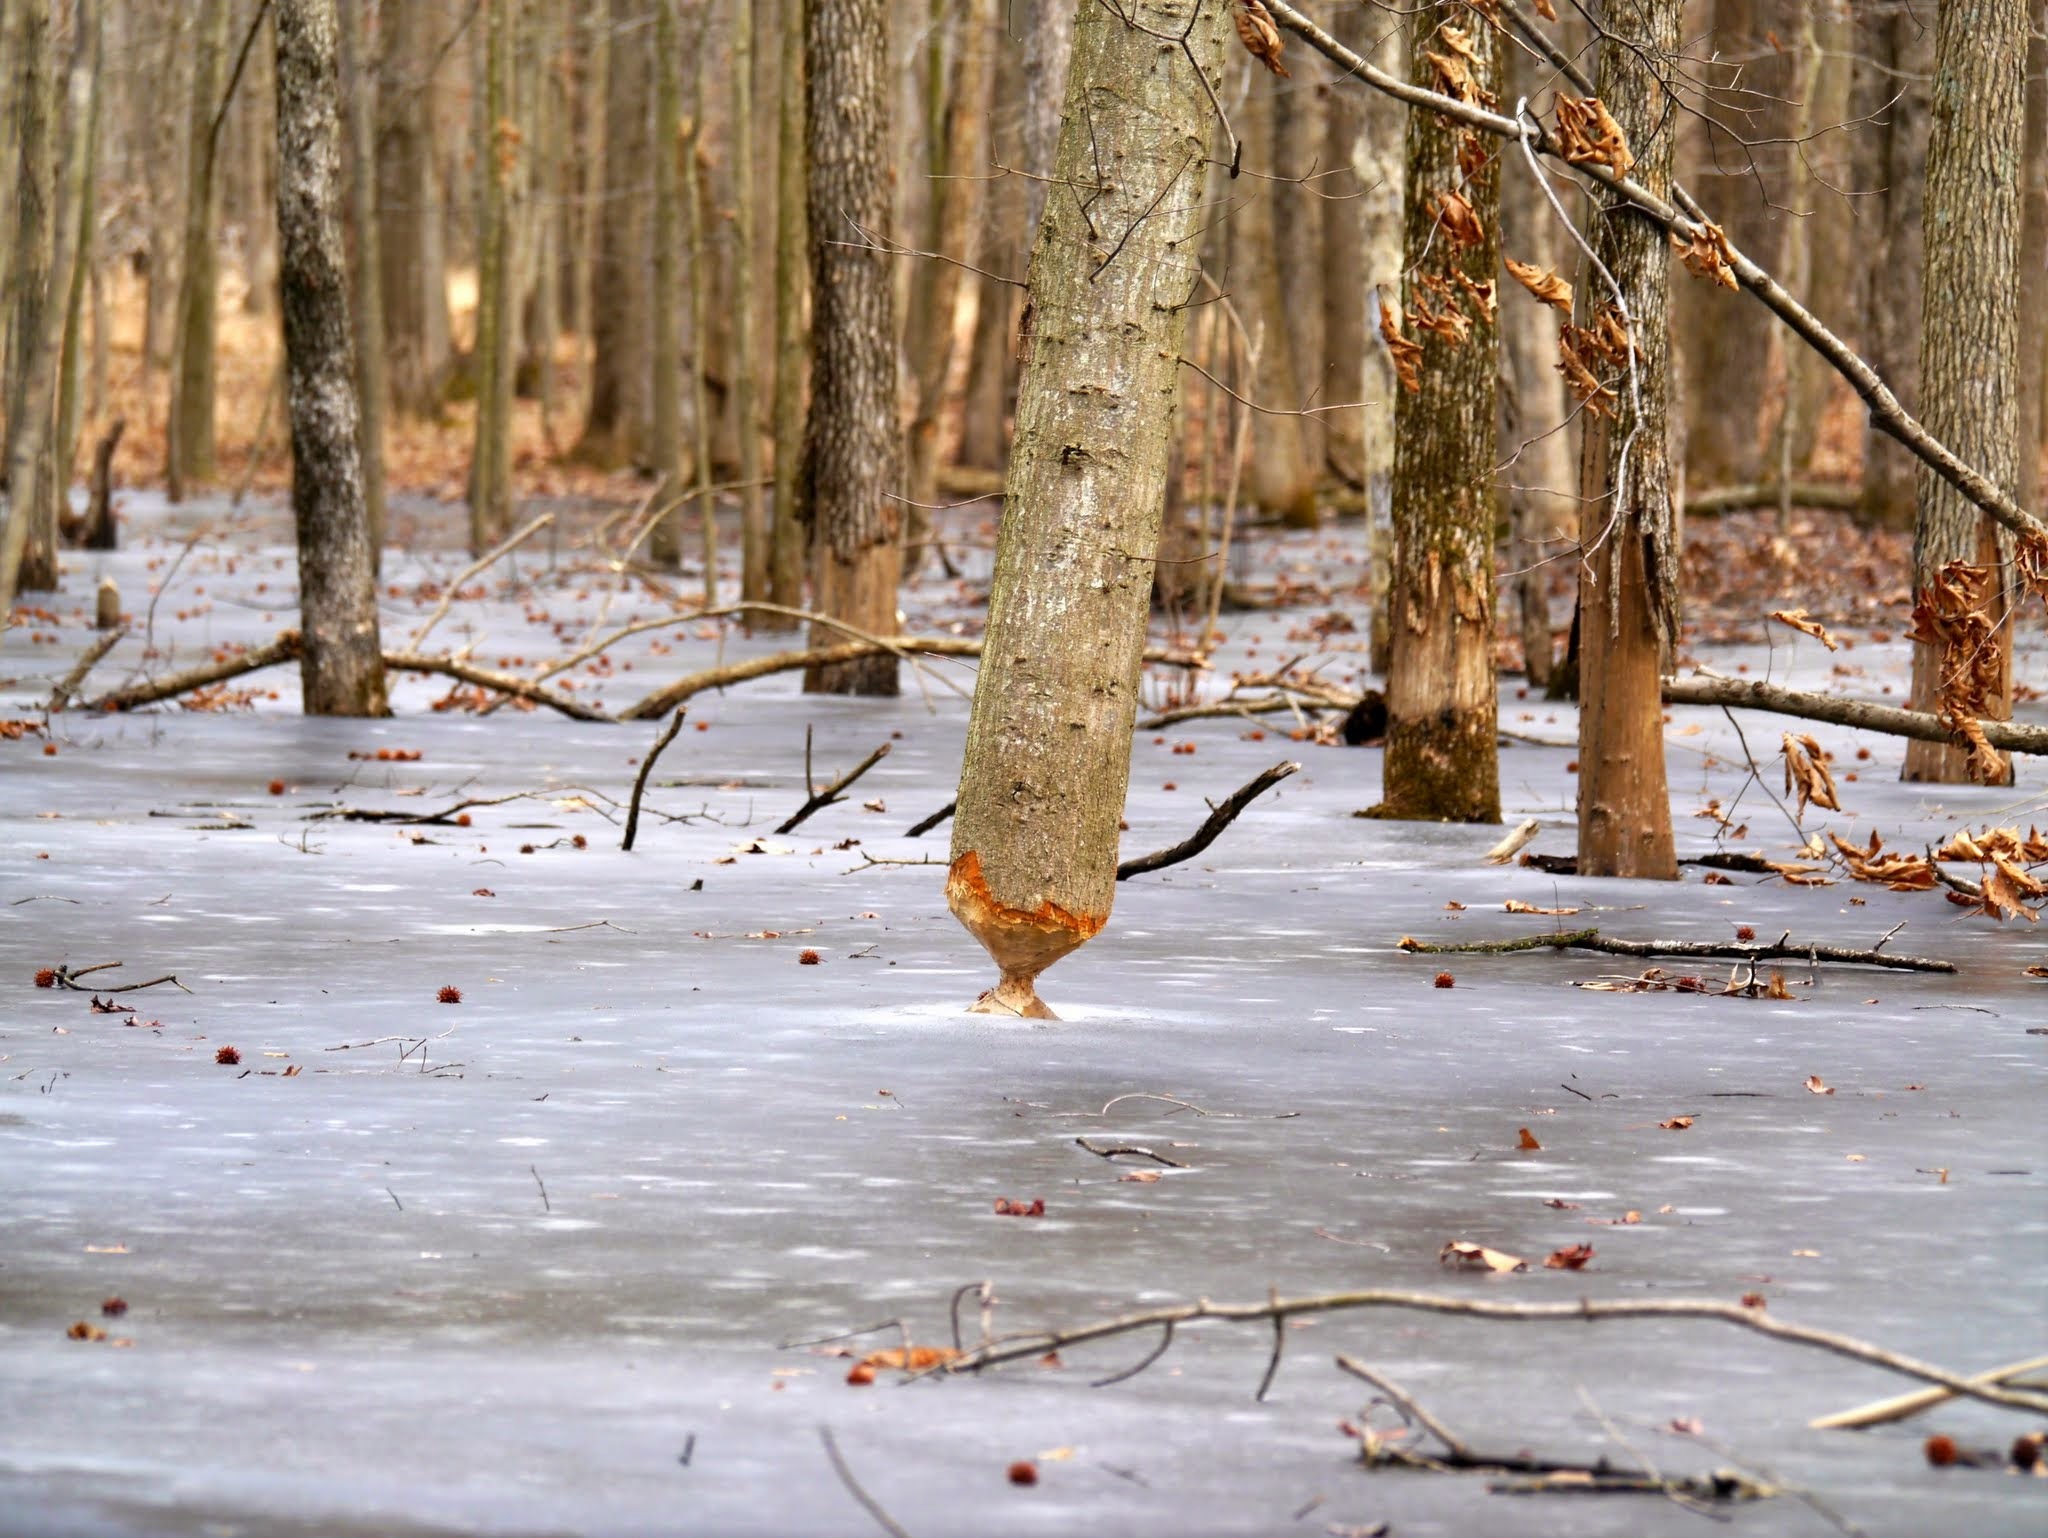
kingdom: Animalia
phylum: Chordata
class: Mammalia
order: Rodentia
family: Castoridae
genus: Castor
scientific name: Castor canadensis
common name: American beaver
